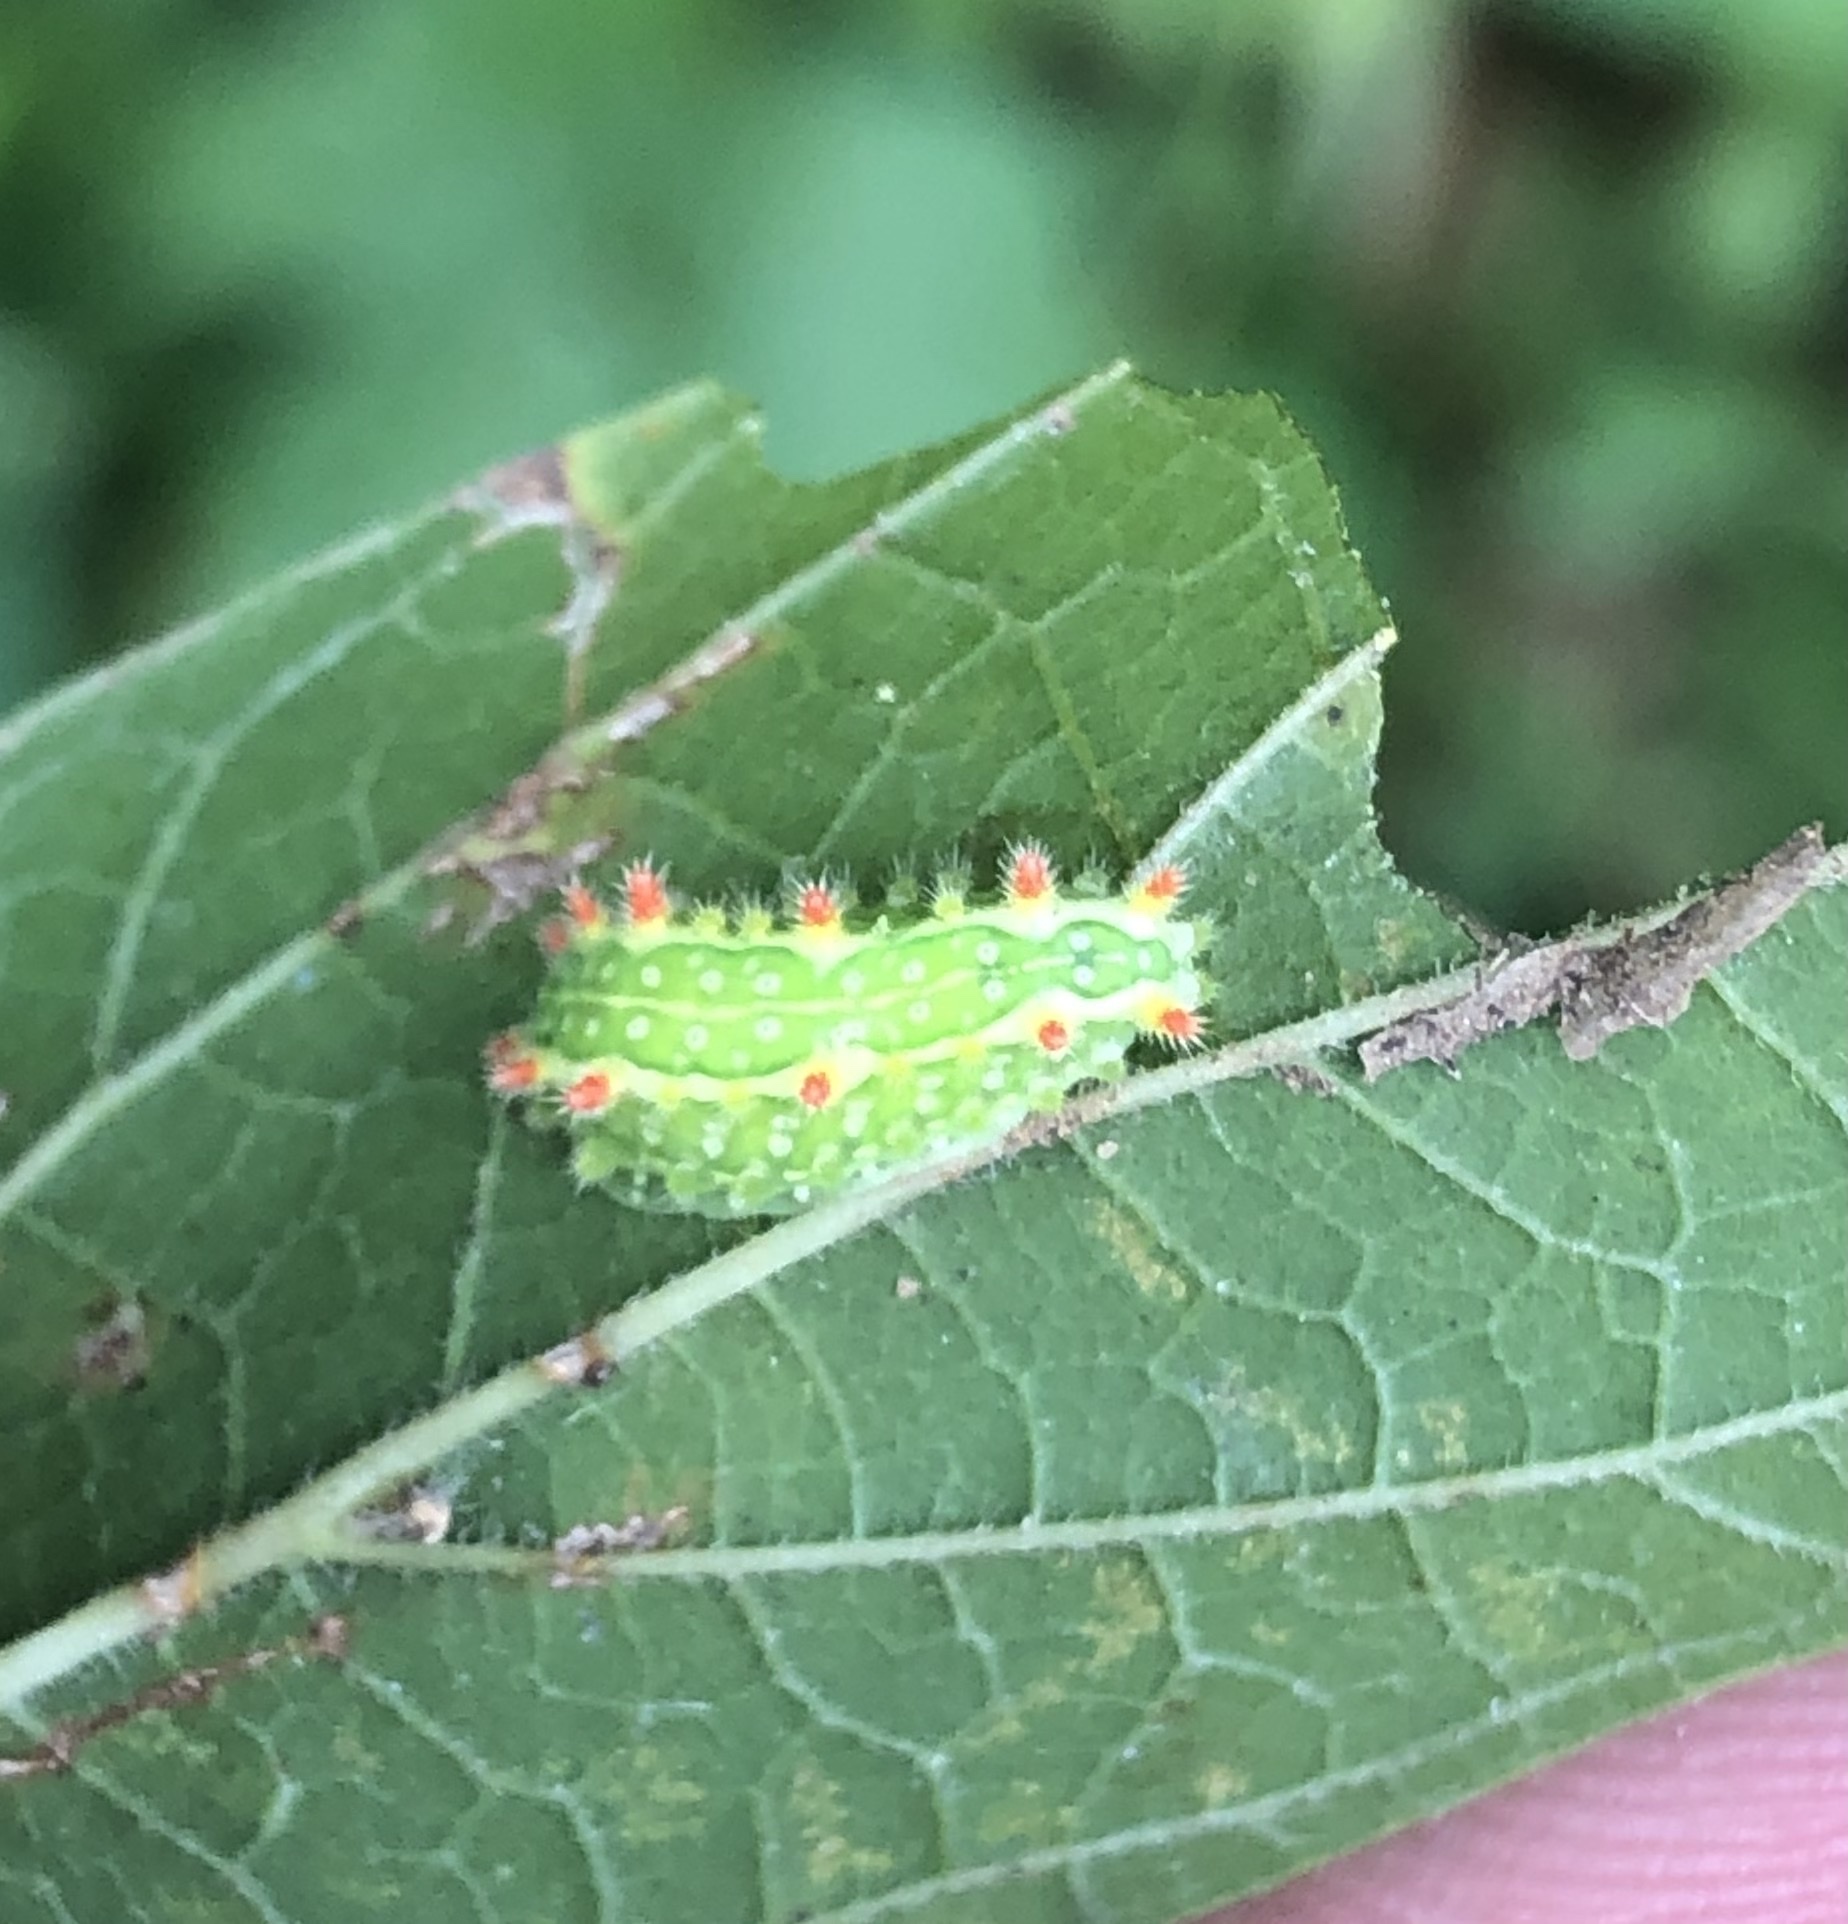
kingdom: Animalia
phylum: Arthropoda
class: Insecta
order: Lepidoptera
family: Limacodidae
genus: Adoneta
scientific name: Adoneta pygmaea
